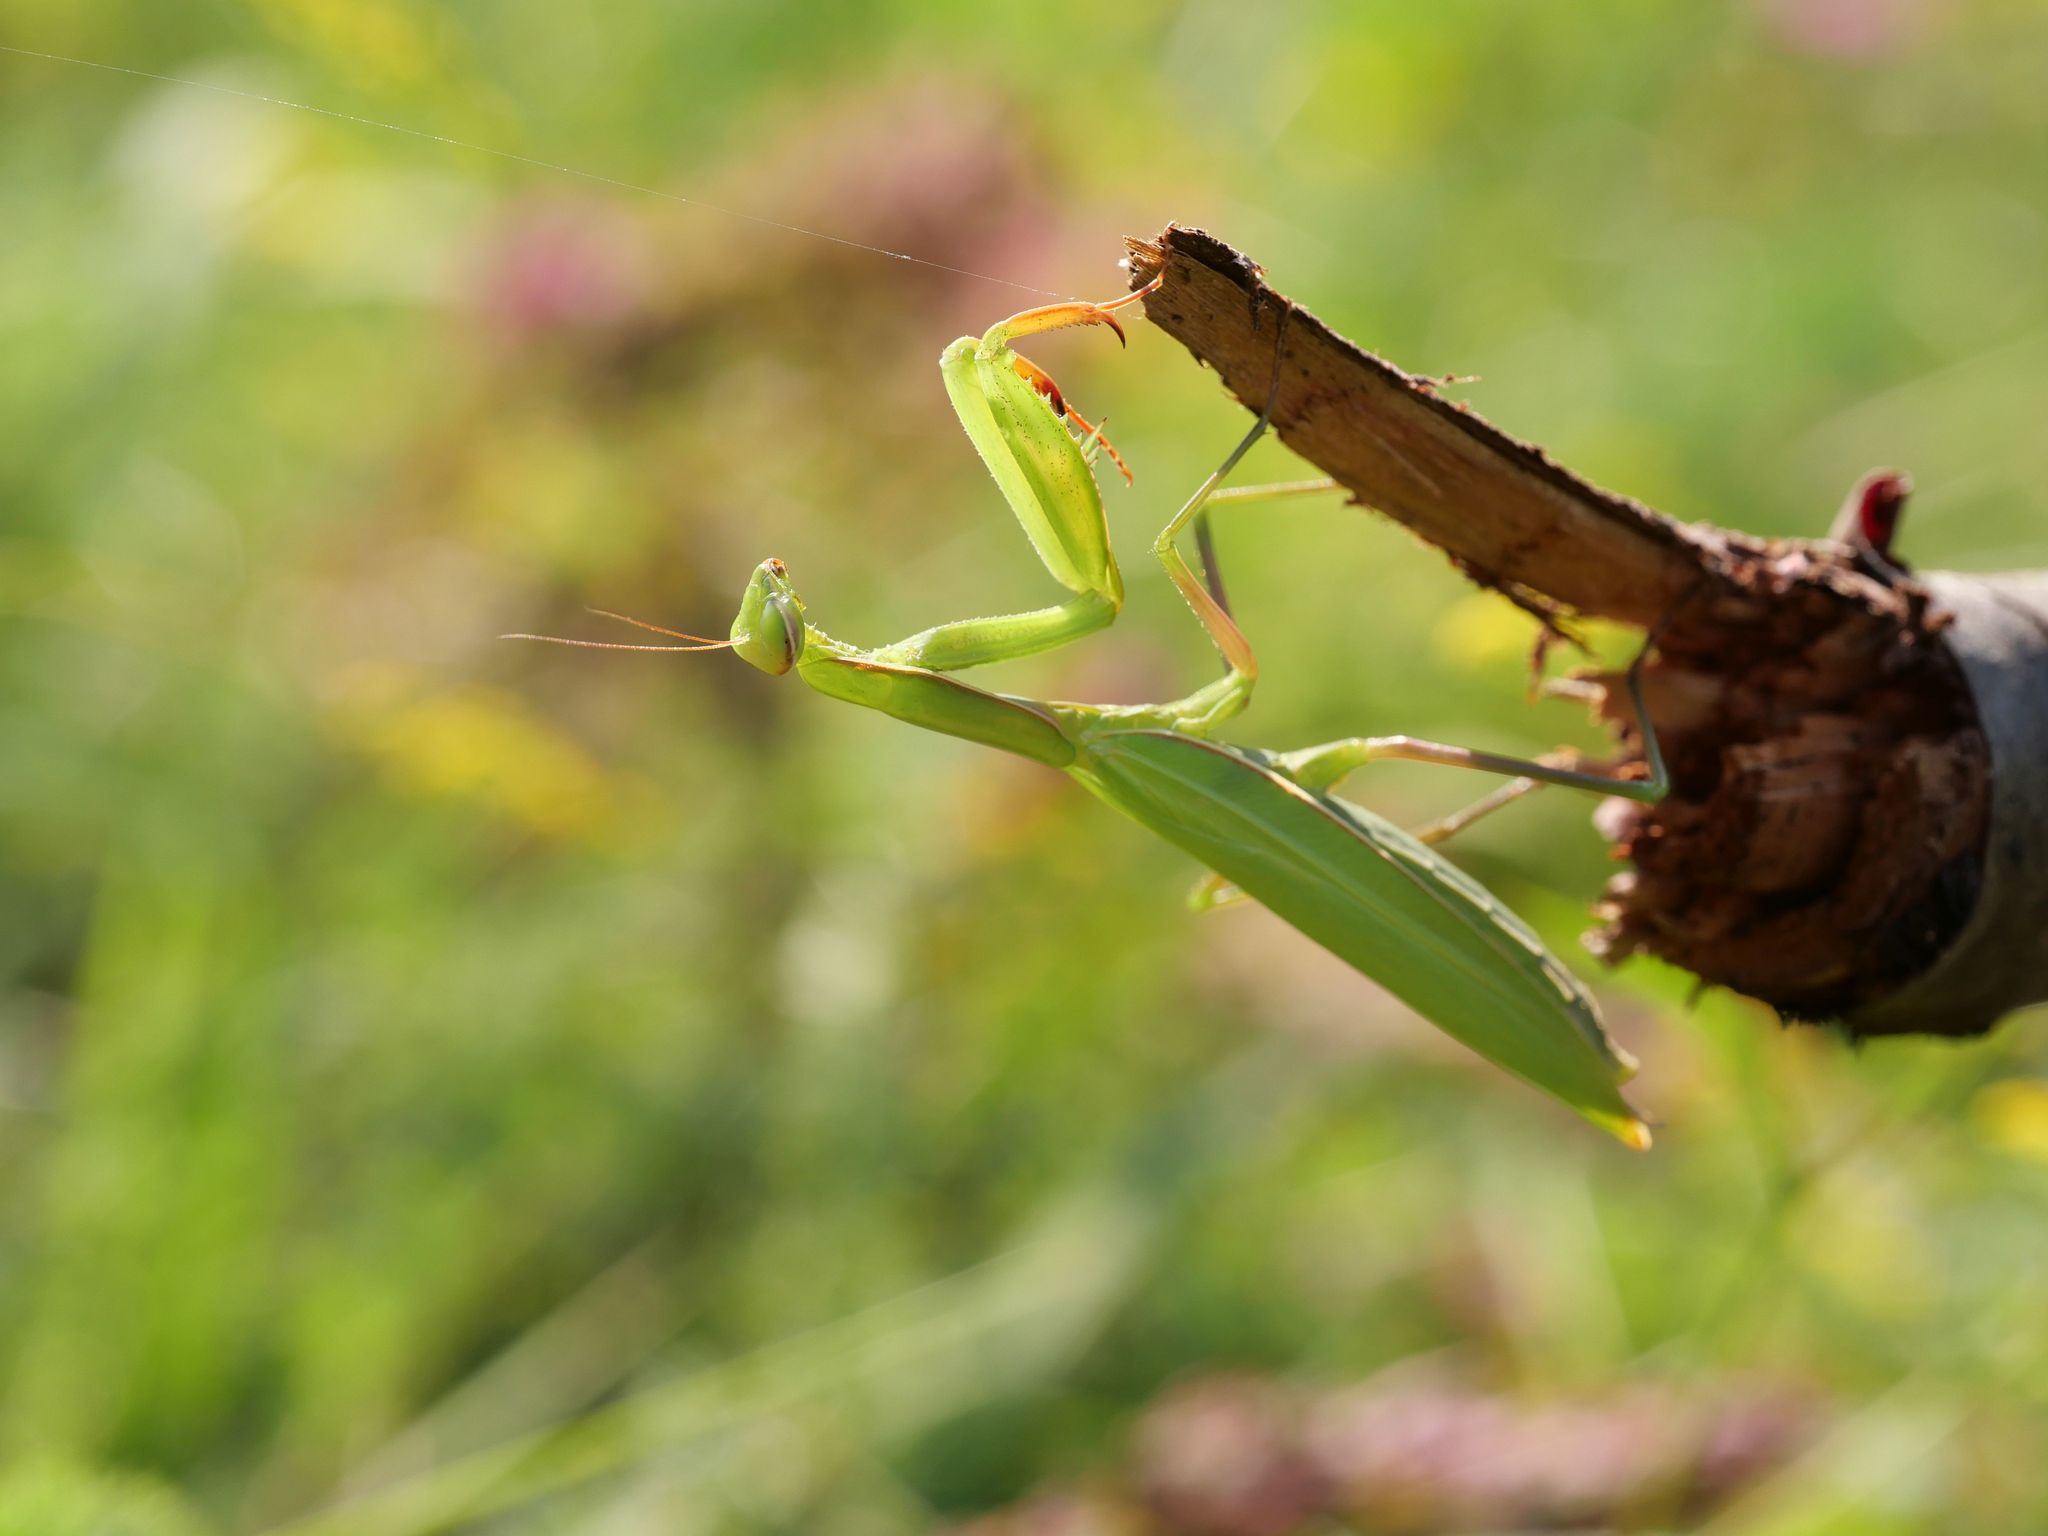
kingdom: Animalia
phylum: Arthropoda
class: Insecta
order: Mantodea
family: Mantidae
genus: Mantis
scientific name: Mantis religiosa
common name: Praying mantis
